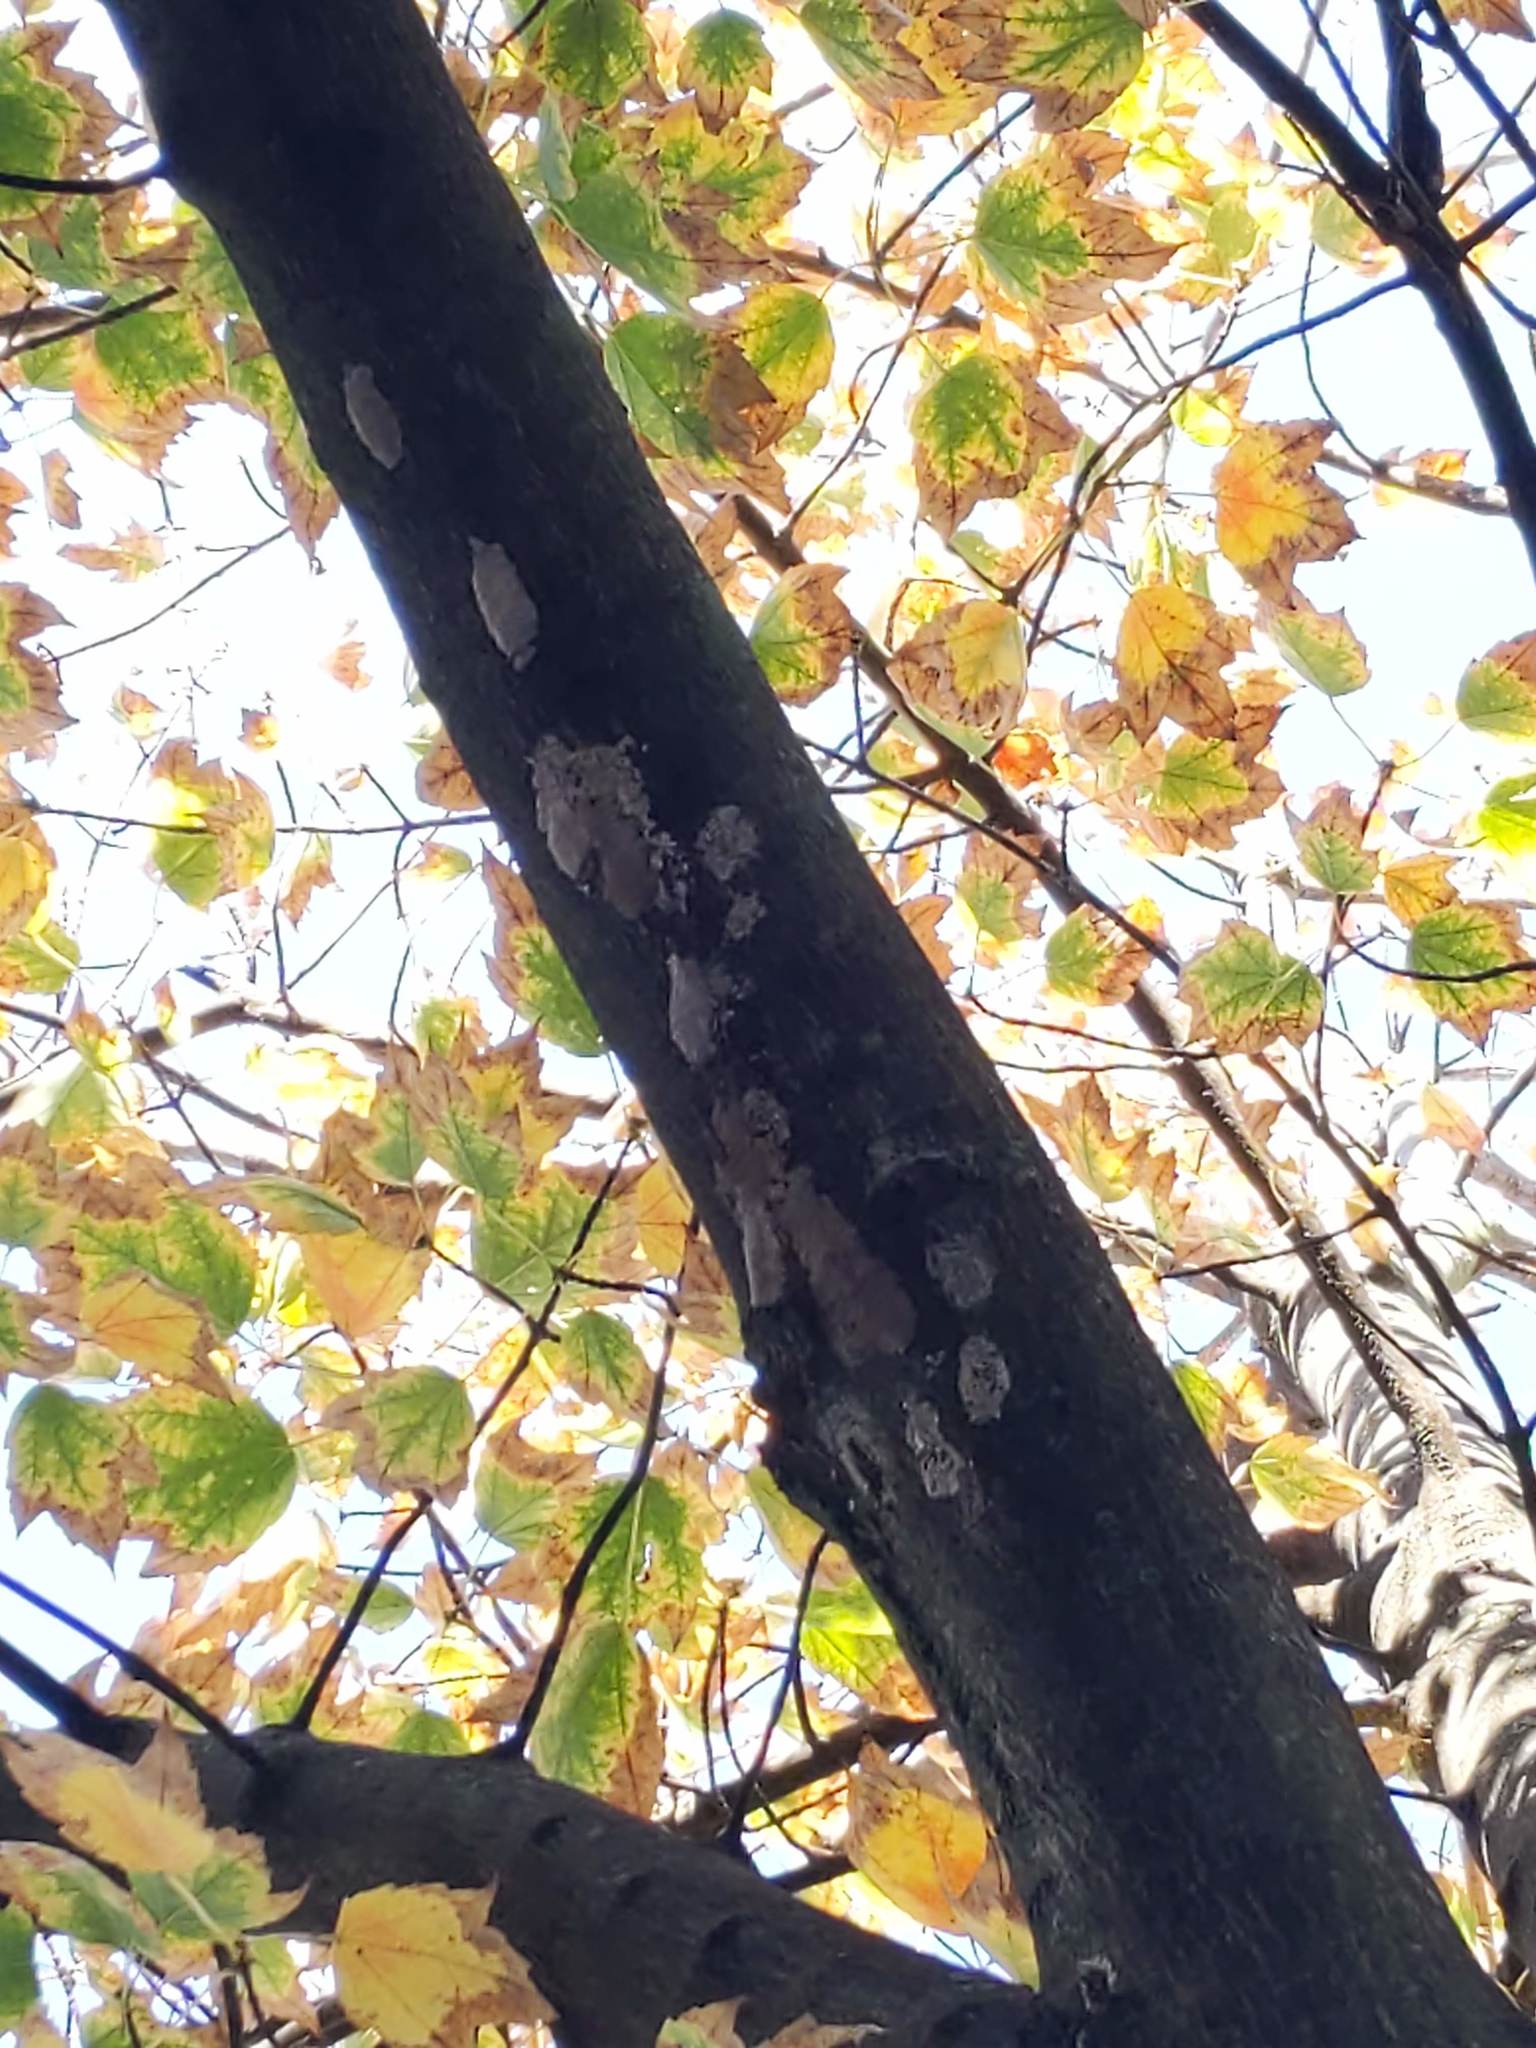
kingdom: Animalia
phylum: Arthropoda
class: Insecta
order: Hemiptera
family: Fulgoridae
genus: Lycorma
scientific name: Lycorma delicatula
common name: Spotted lanternfly
